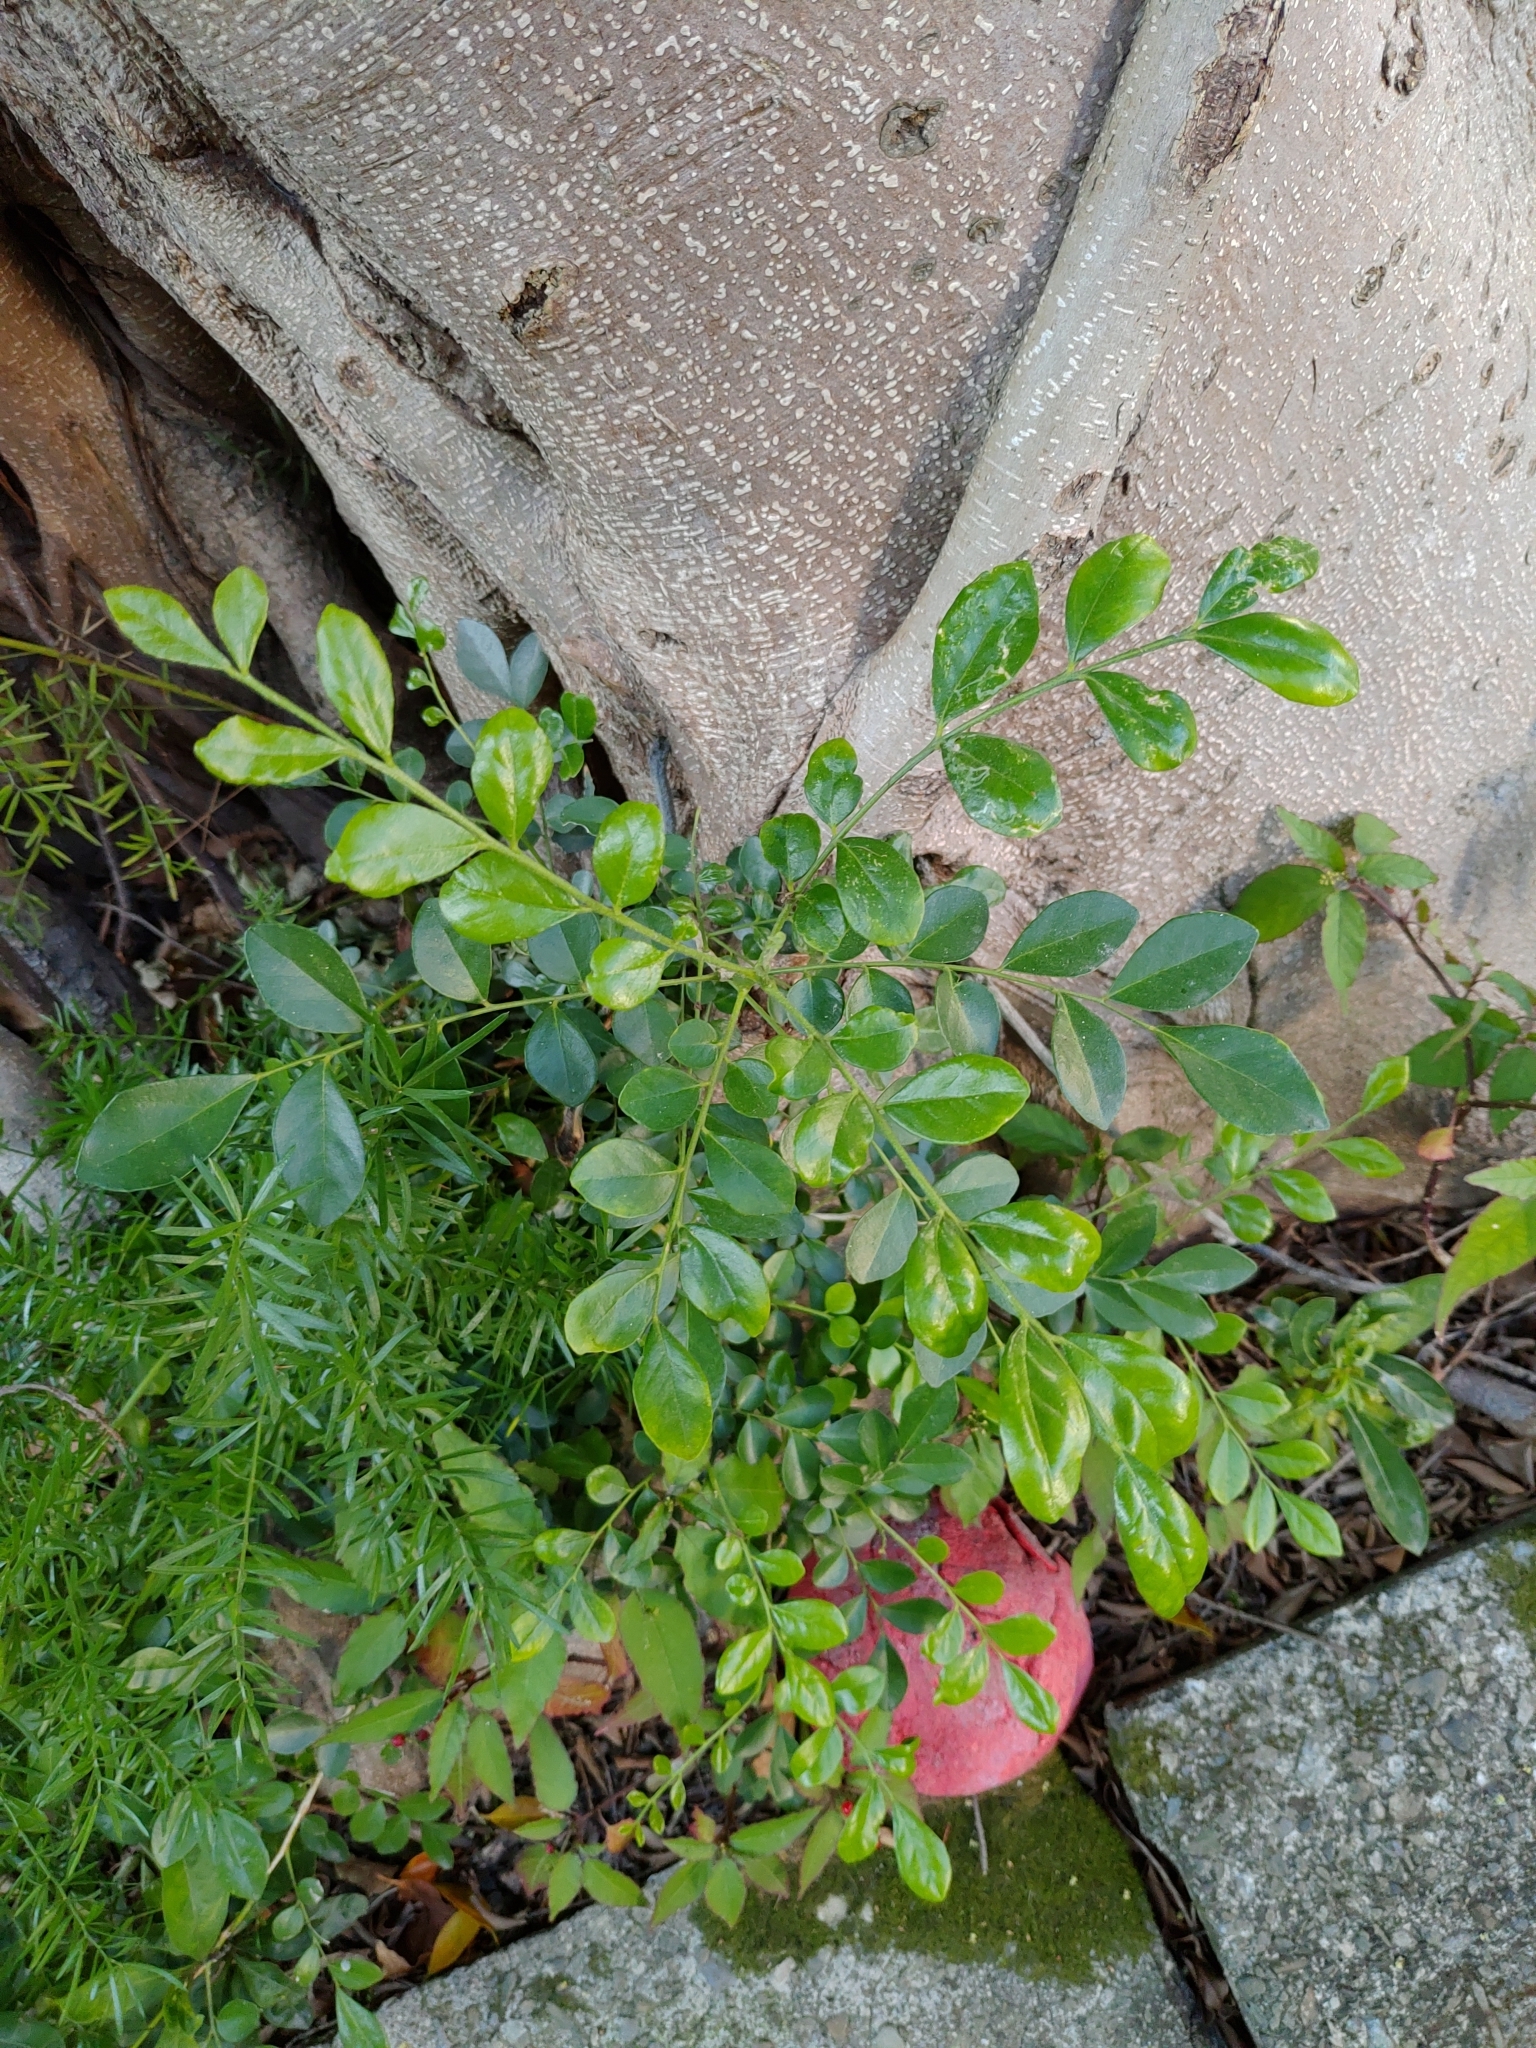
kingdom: Plantae
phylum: Tracheophyta
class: Magnoliopsida
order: Sapindales
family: Rutaceae
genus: Murraya
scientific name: Murraya paniculata
